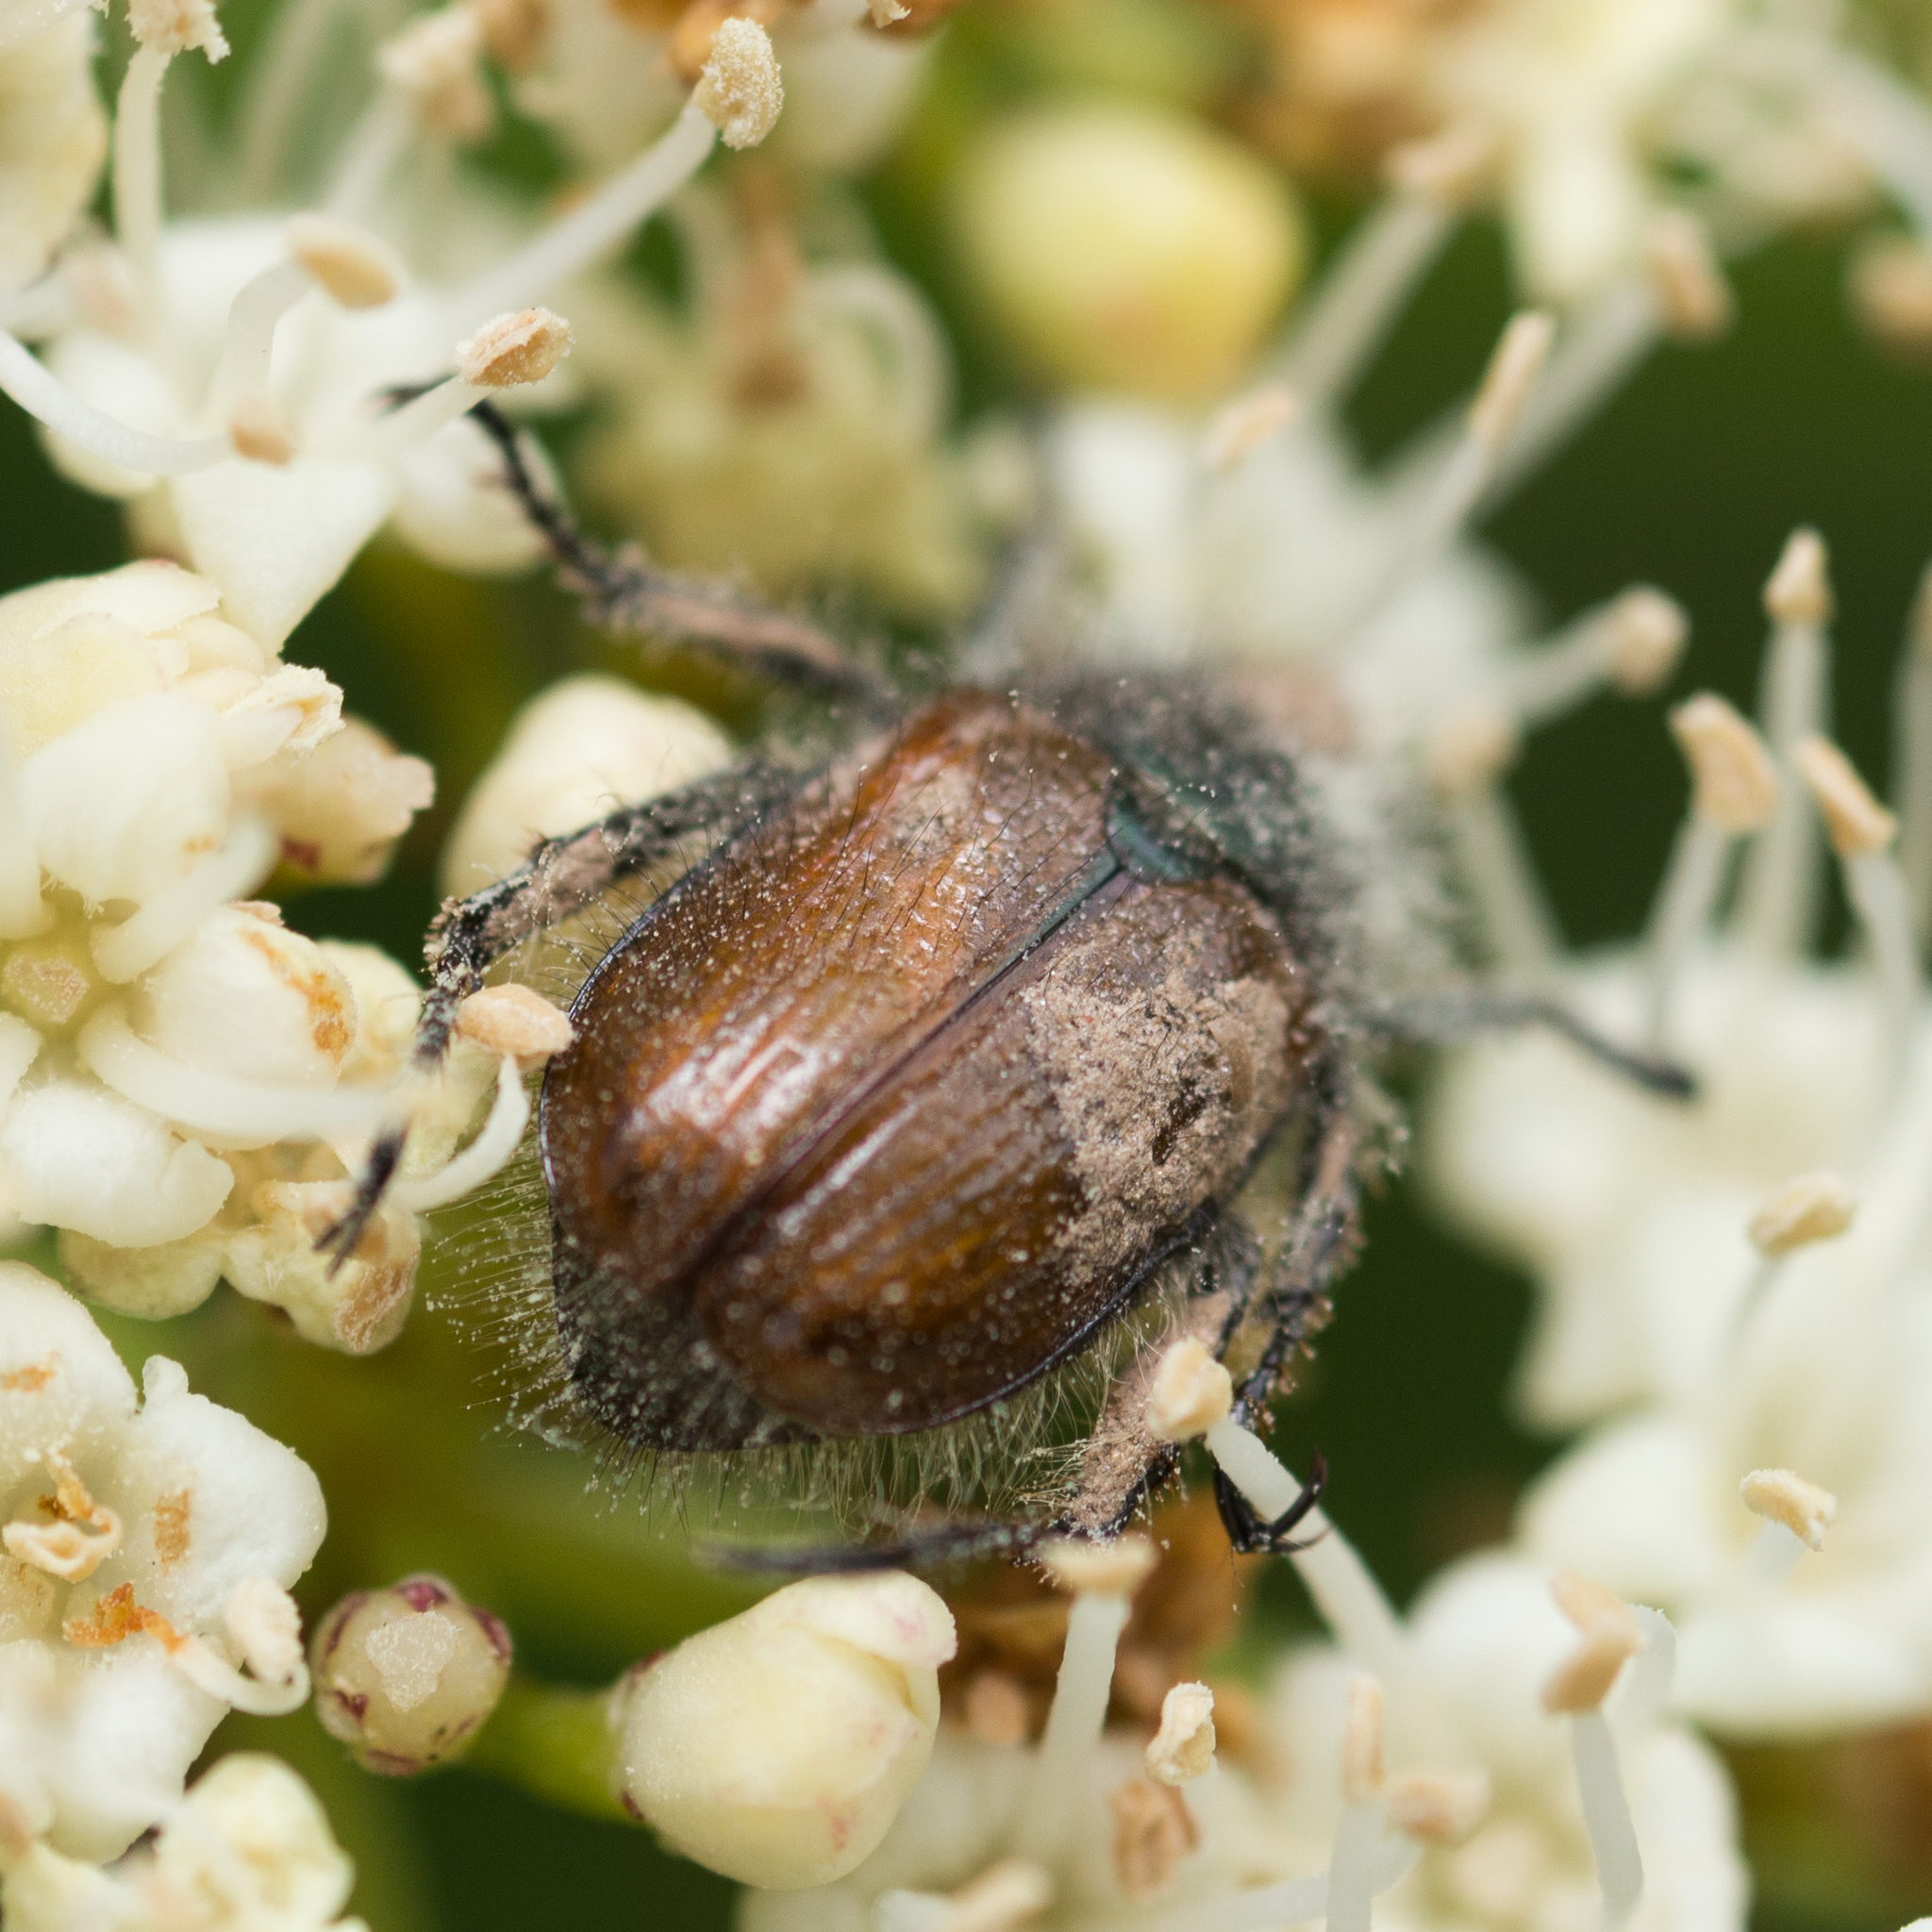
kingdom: Animalia
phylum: Arthropoda
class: Insecta
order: Coleoptera
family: Scarabaeidae
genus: Phyllopertha
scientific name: Phyllopertha horticola
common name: Garden chafer
